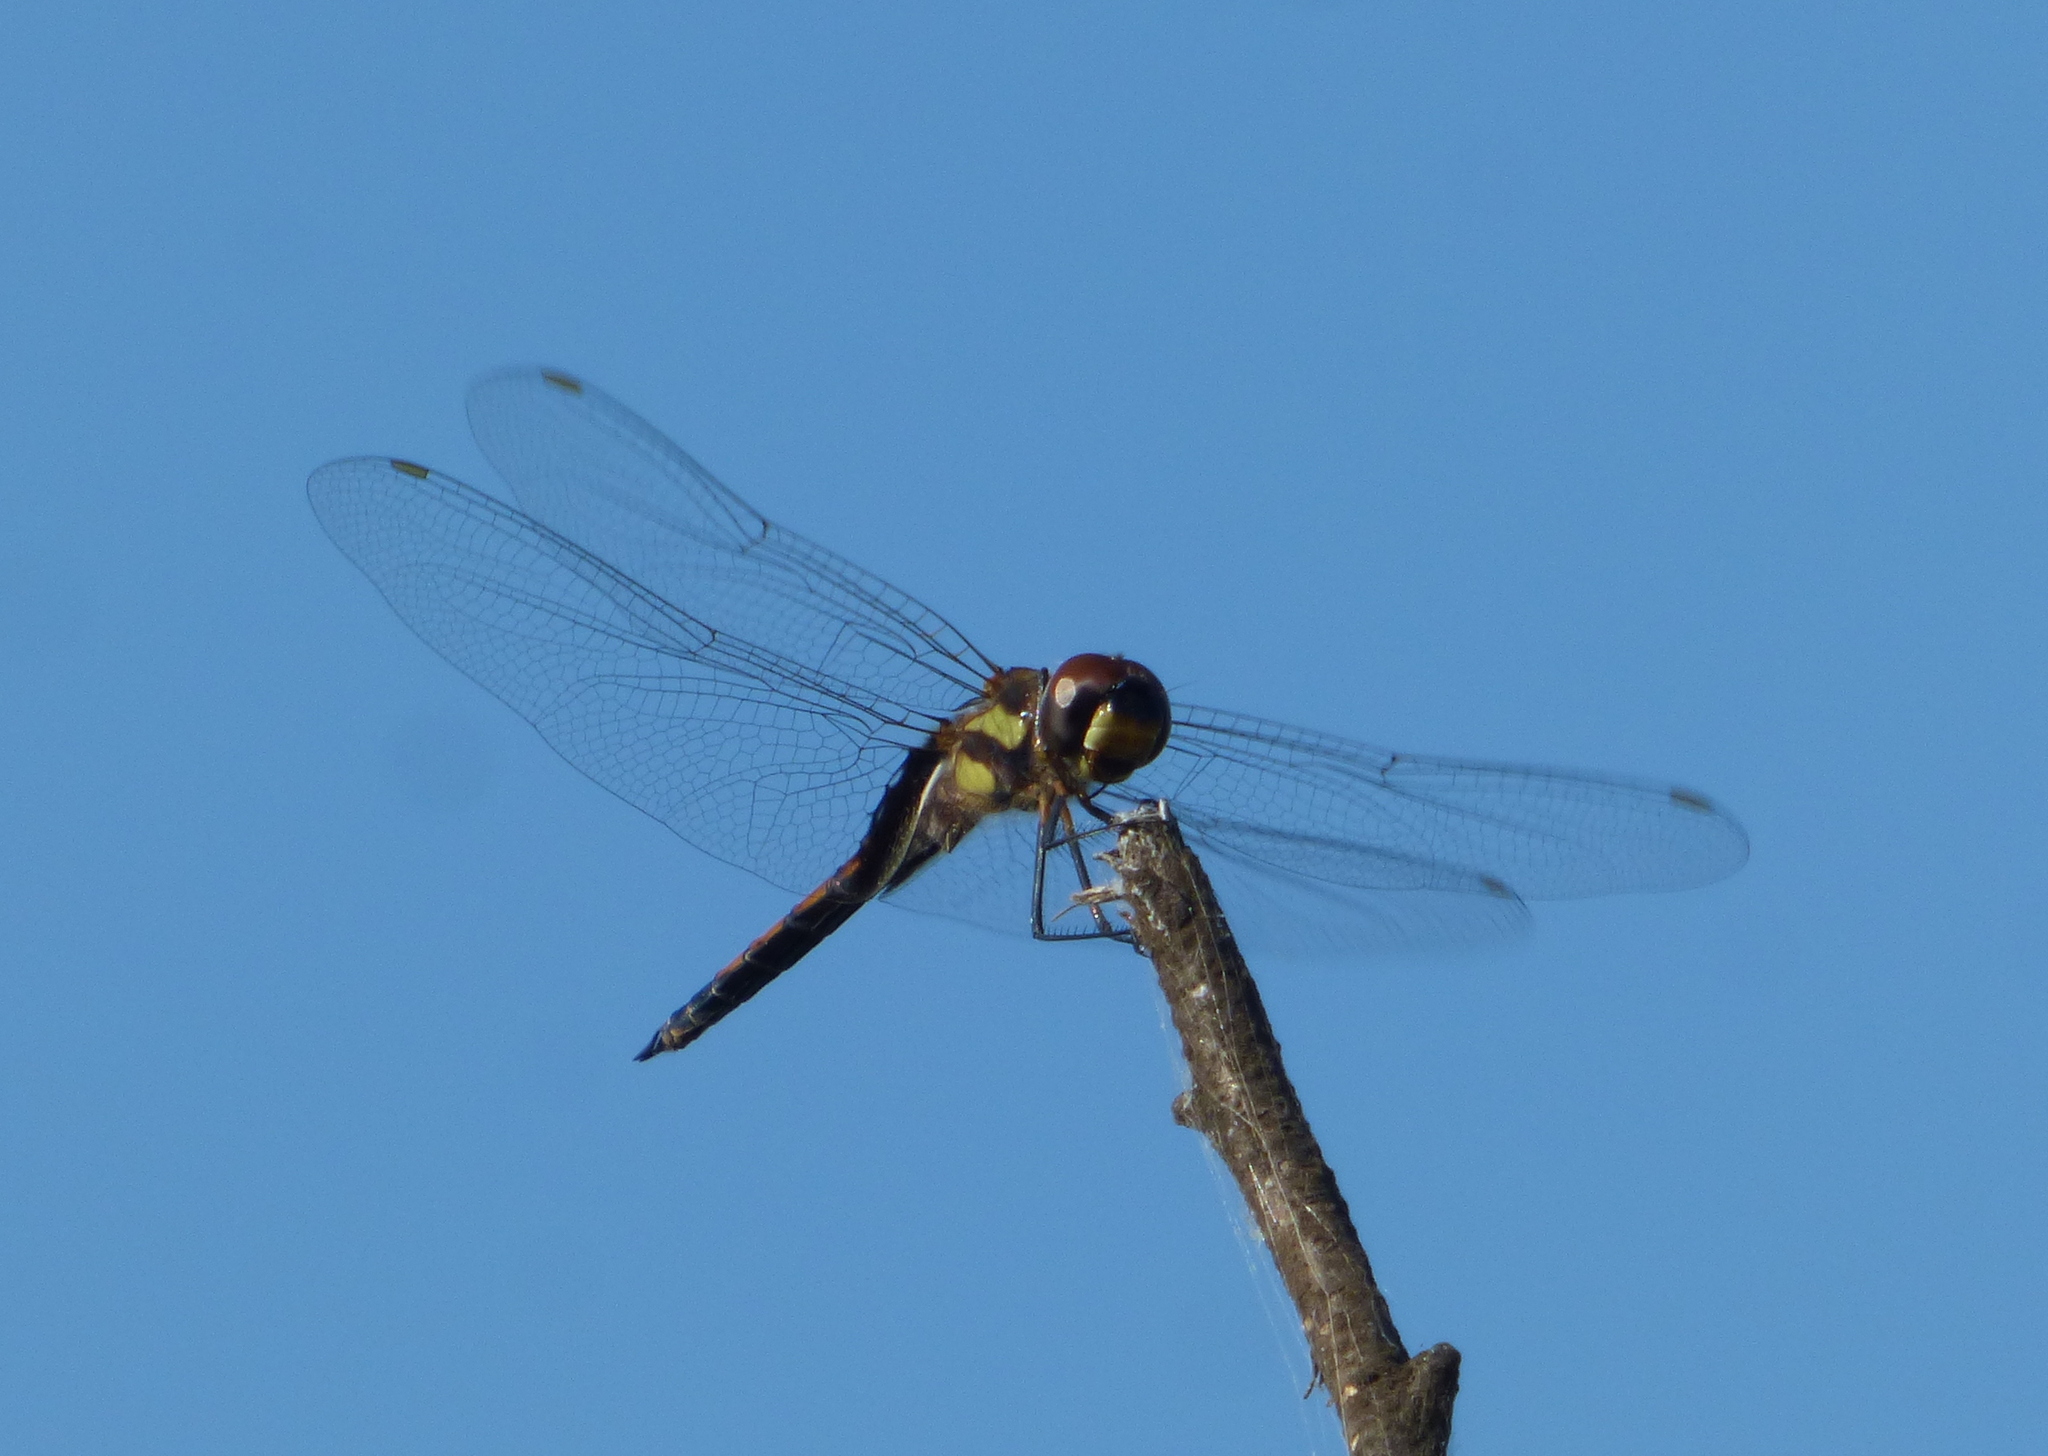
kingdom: Animalia
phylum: Arthropoda
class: Insecta
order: Odonata
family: Libellulidae
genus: Tramea
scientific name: Tramea cophysa
